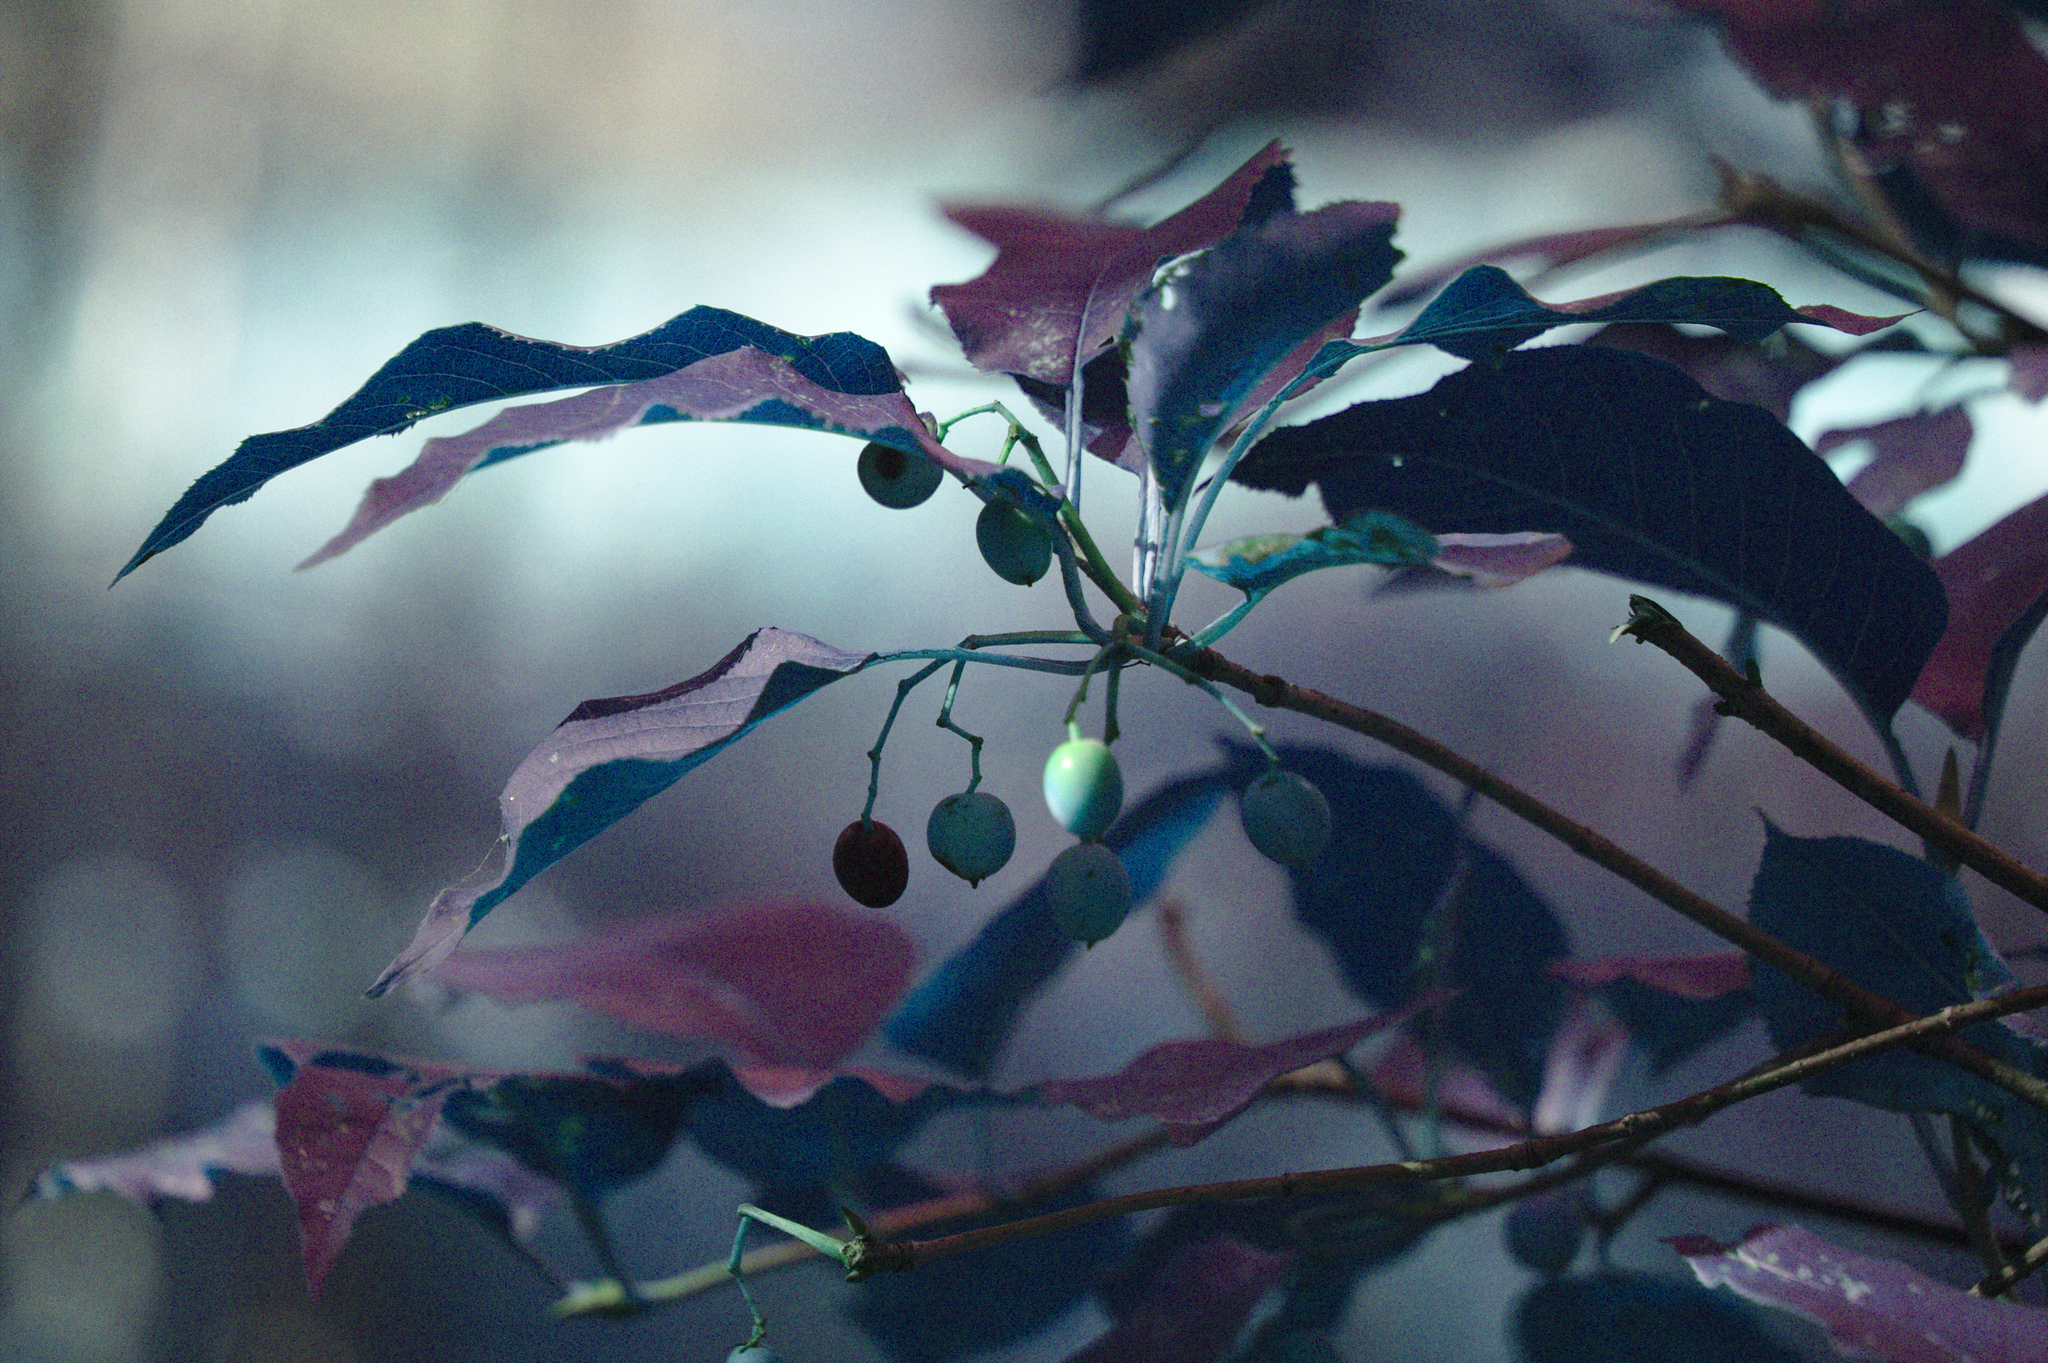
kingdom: Plantae
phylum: Tracheophyta
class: Magnoliopsida
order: Dipsacales
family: Viburnaceae
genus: Viburnum
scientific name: Viburnum lentago
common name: Black haw
